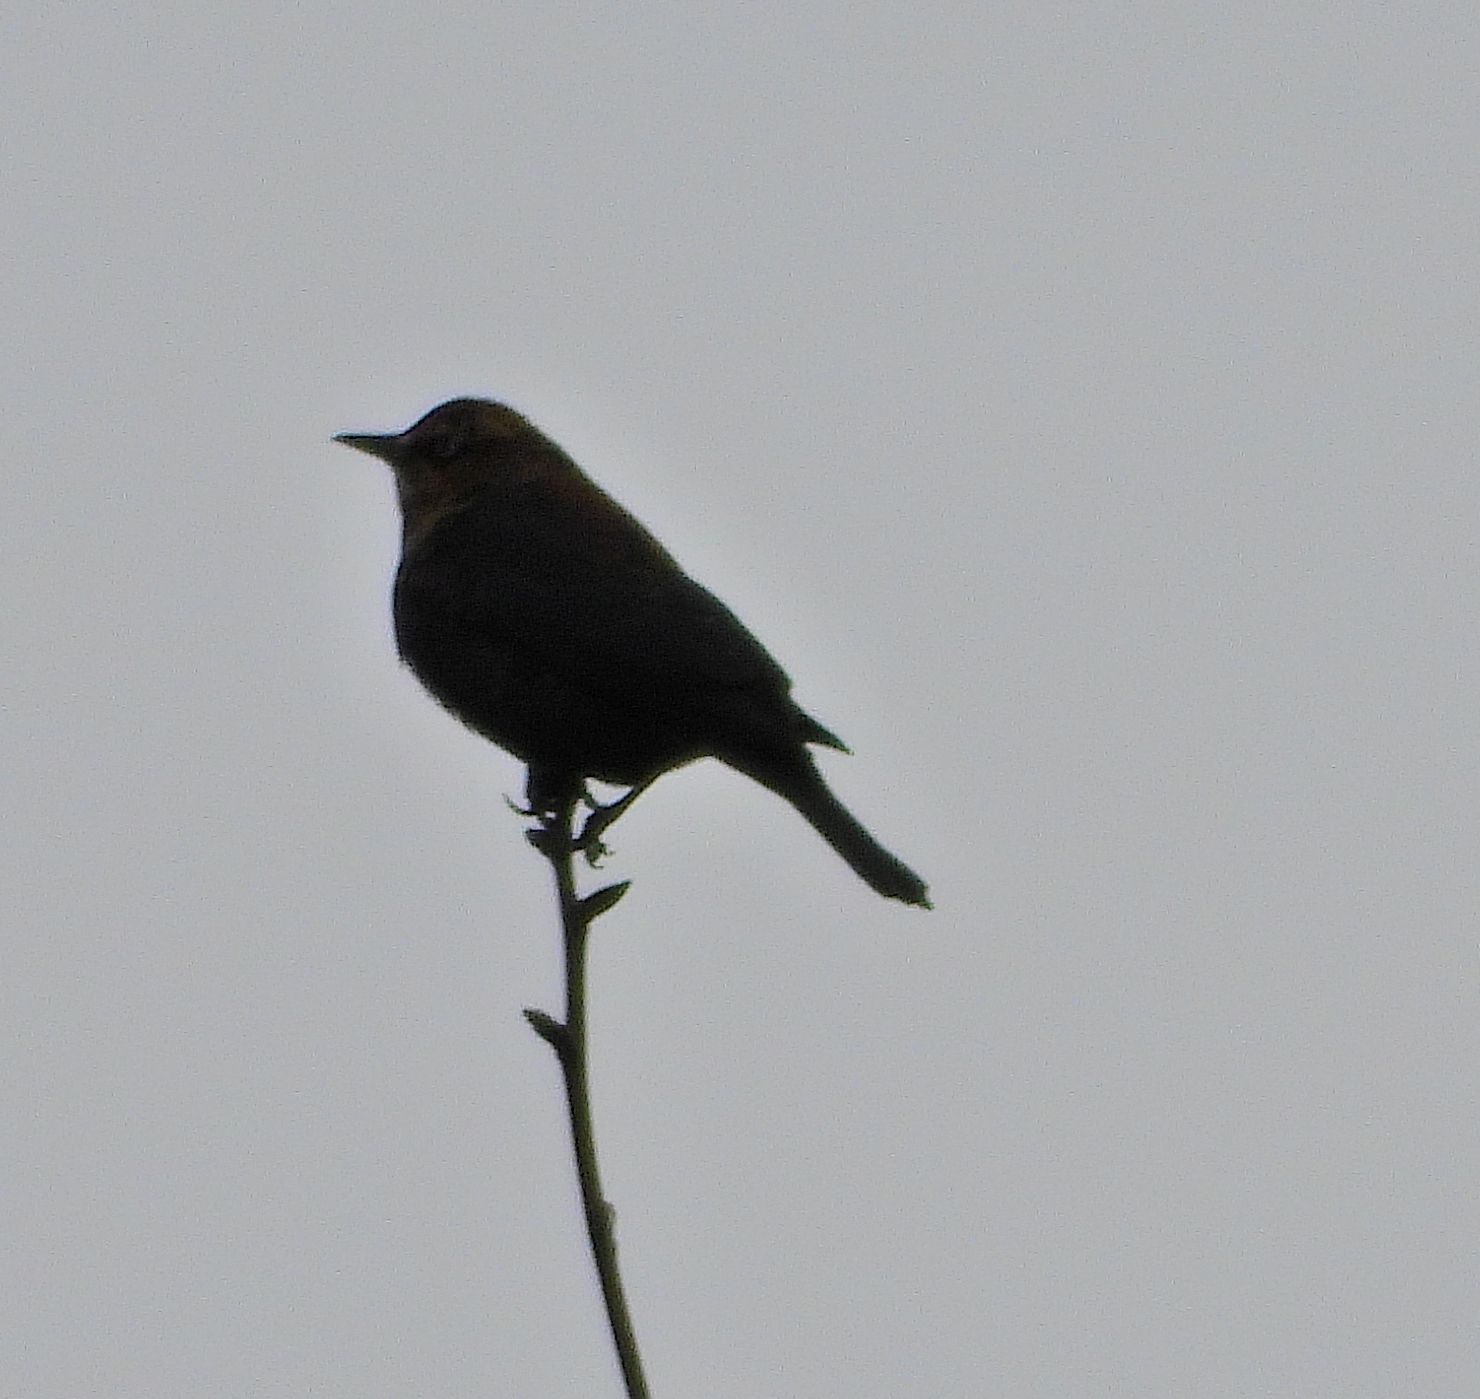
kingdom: Animalia
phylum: Chordata
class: Aves
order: Passeriformes
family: Icteridae
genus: Euphagus
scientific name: Euphagus carolinus
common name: Rusty blackbird
